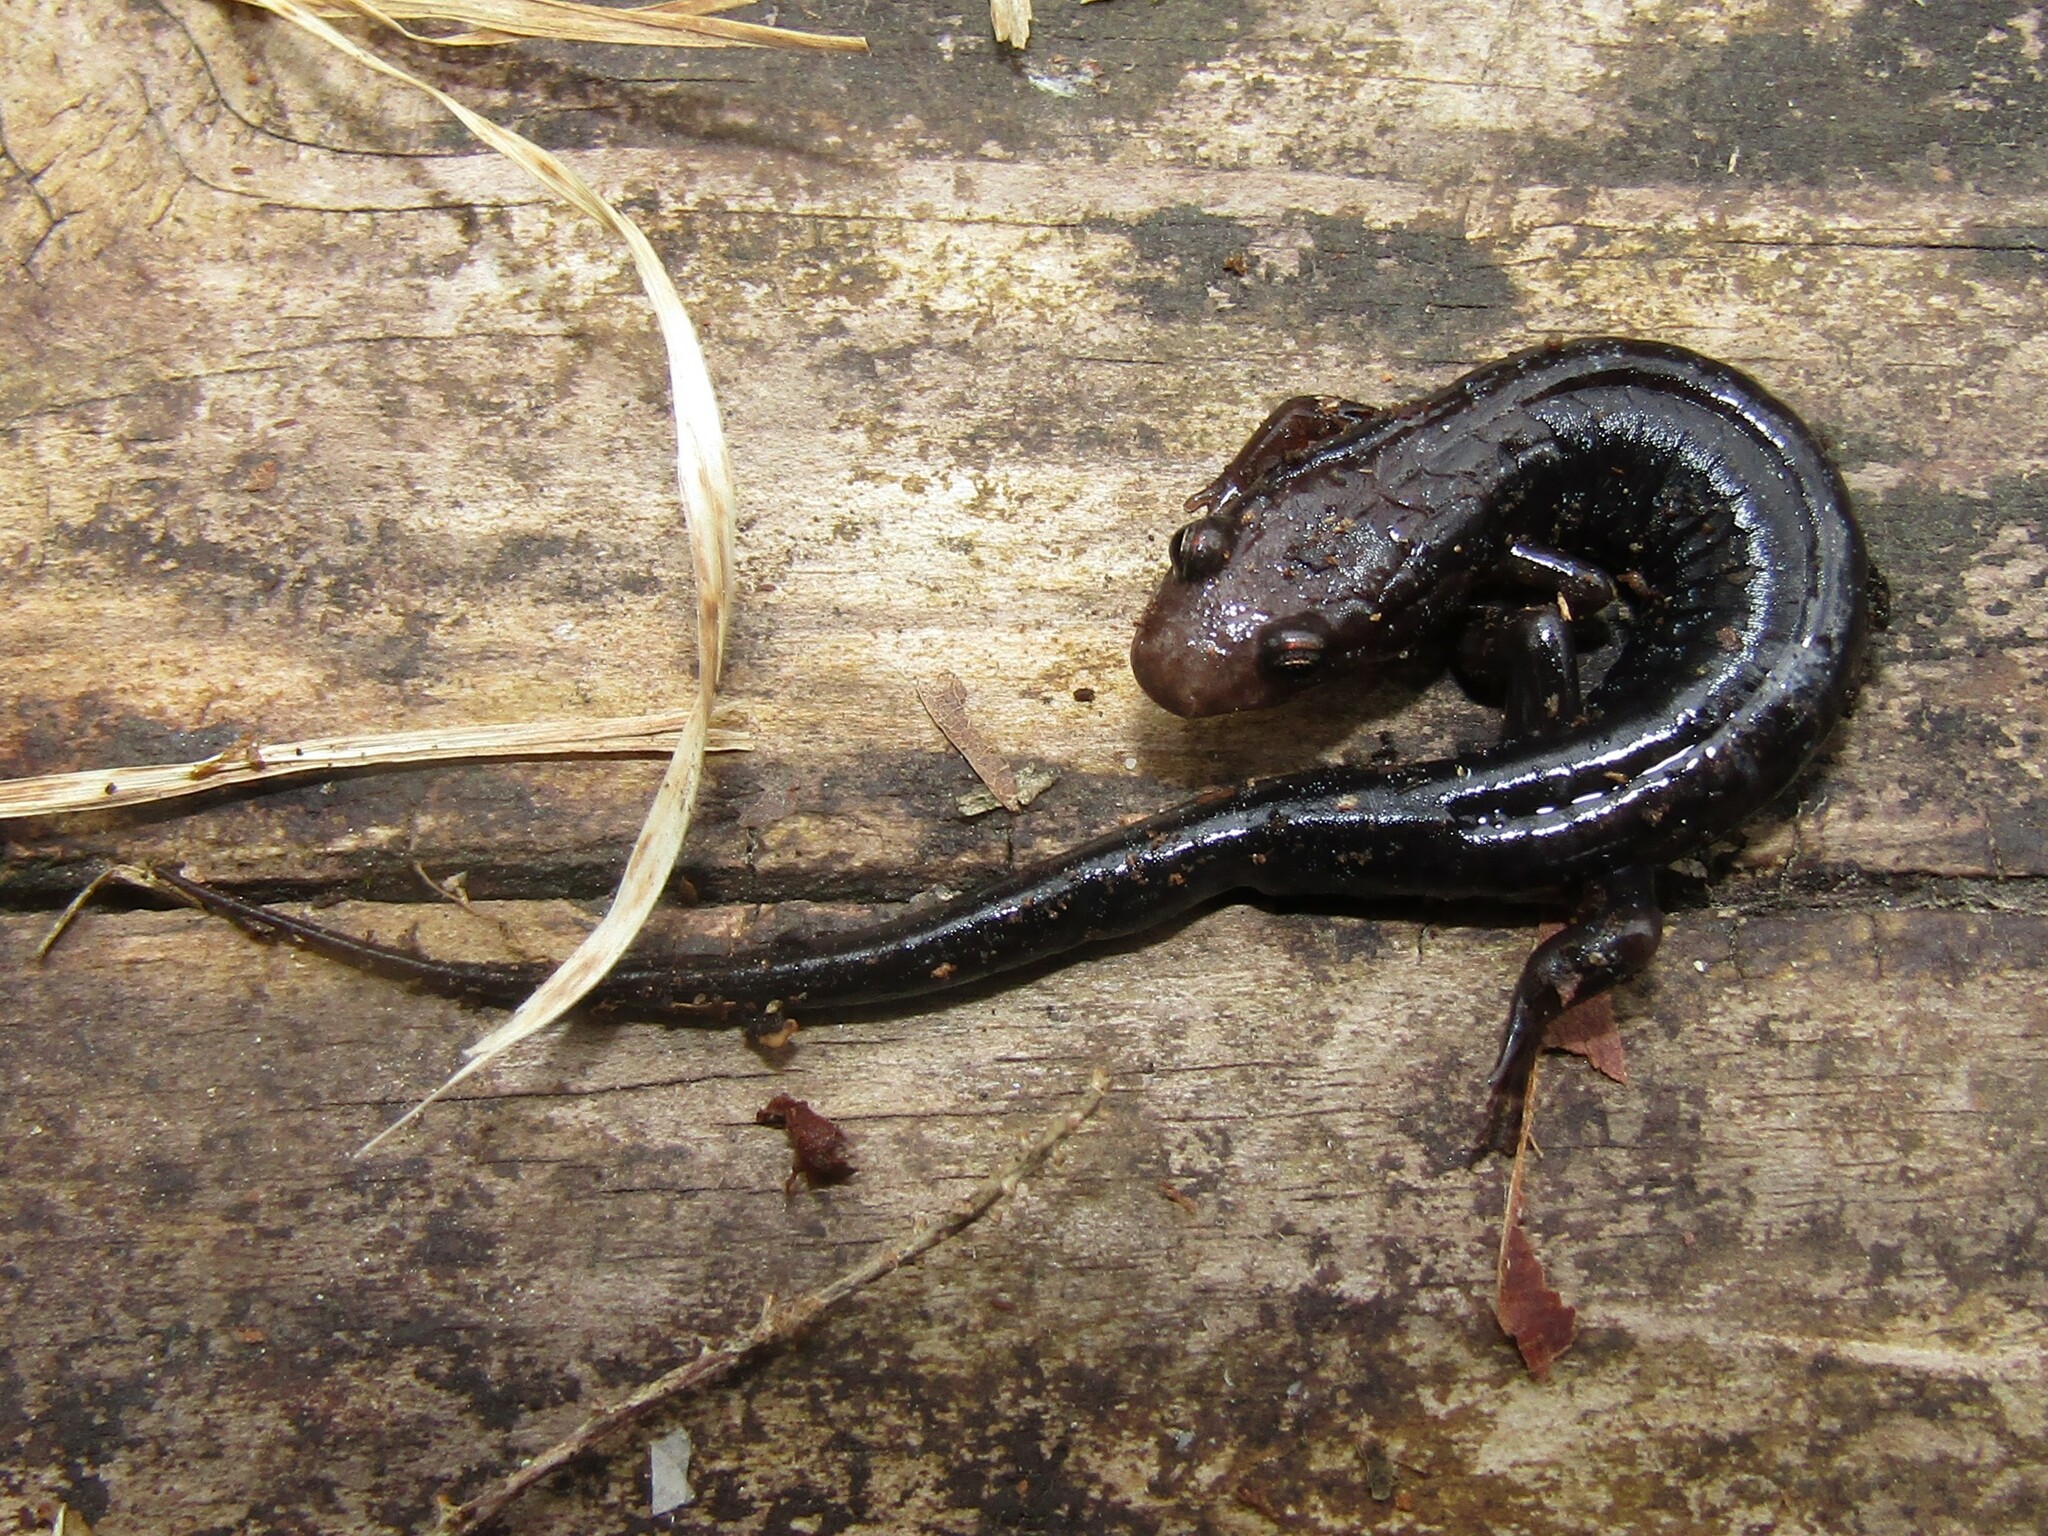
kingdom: Animalia
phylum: Chordata
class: Amphibia
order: Caudata
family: Plethodontidae
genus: Desmognathus
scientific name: Desmognathus ochrophaeus
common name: Allegheny mountain dusky salamander
